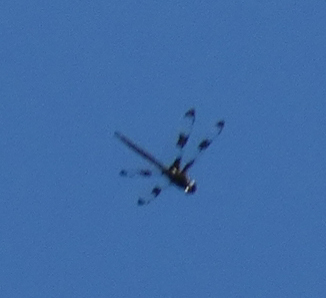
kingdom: Animalia
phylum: Arthropoda
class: Insecta
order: Odonata
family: Corduliidae
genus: Epitheca
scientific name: Epitheca princeps
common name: Prince baskettail
